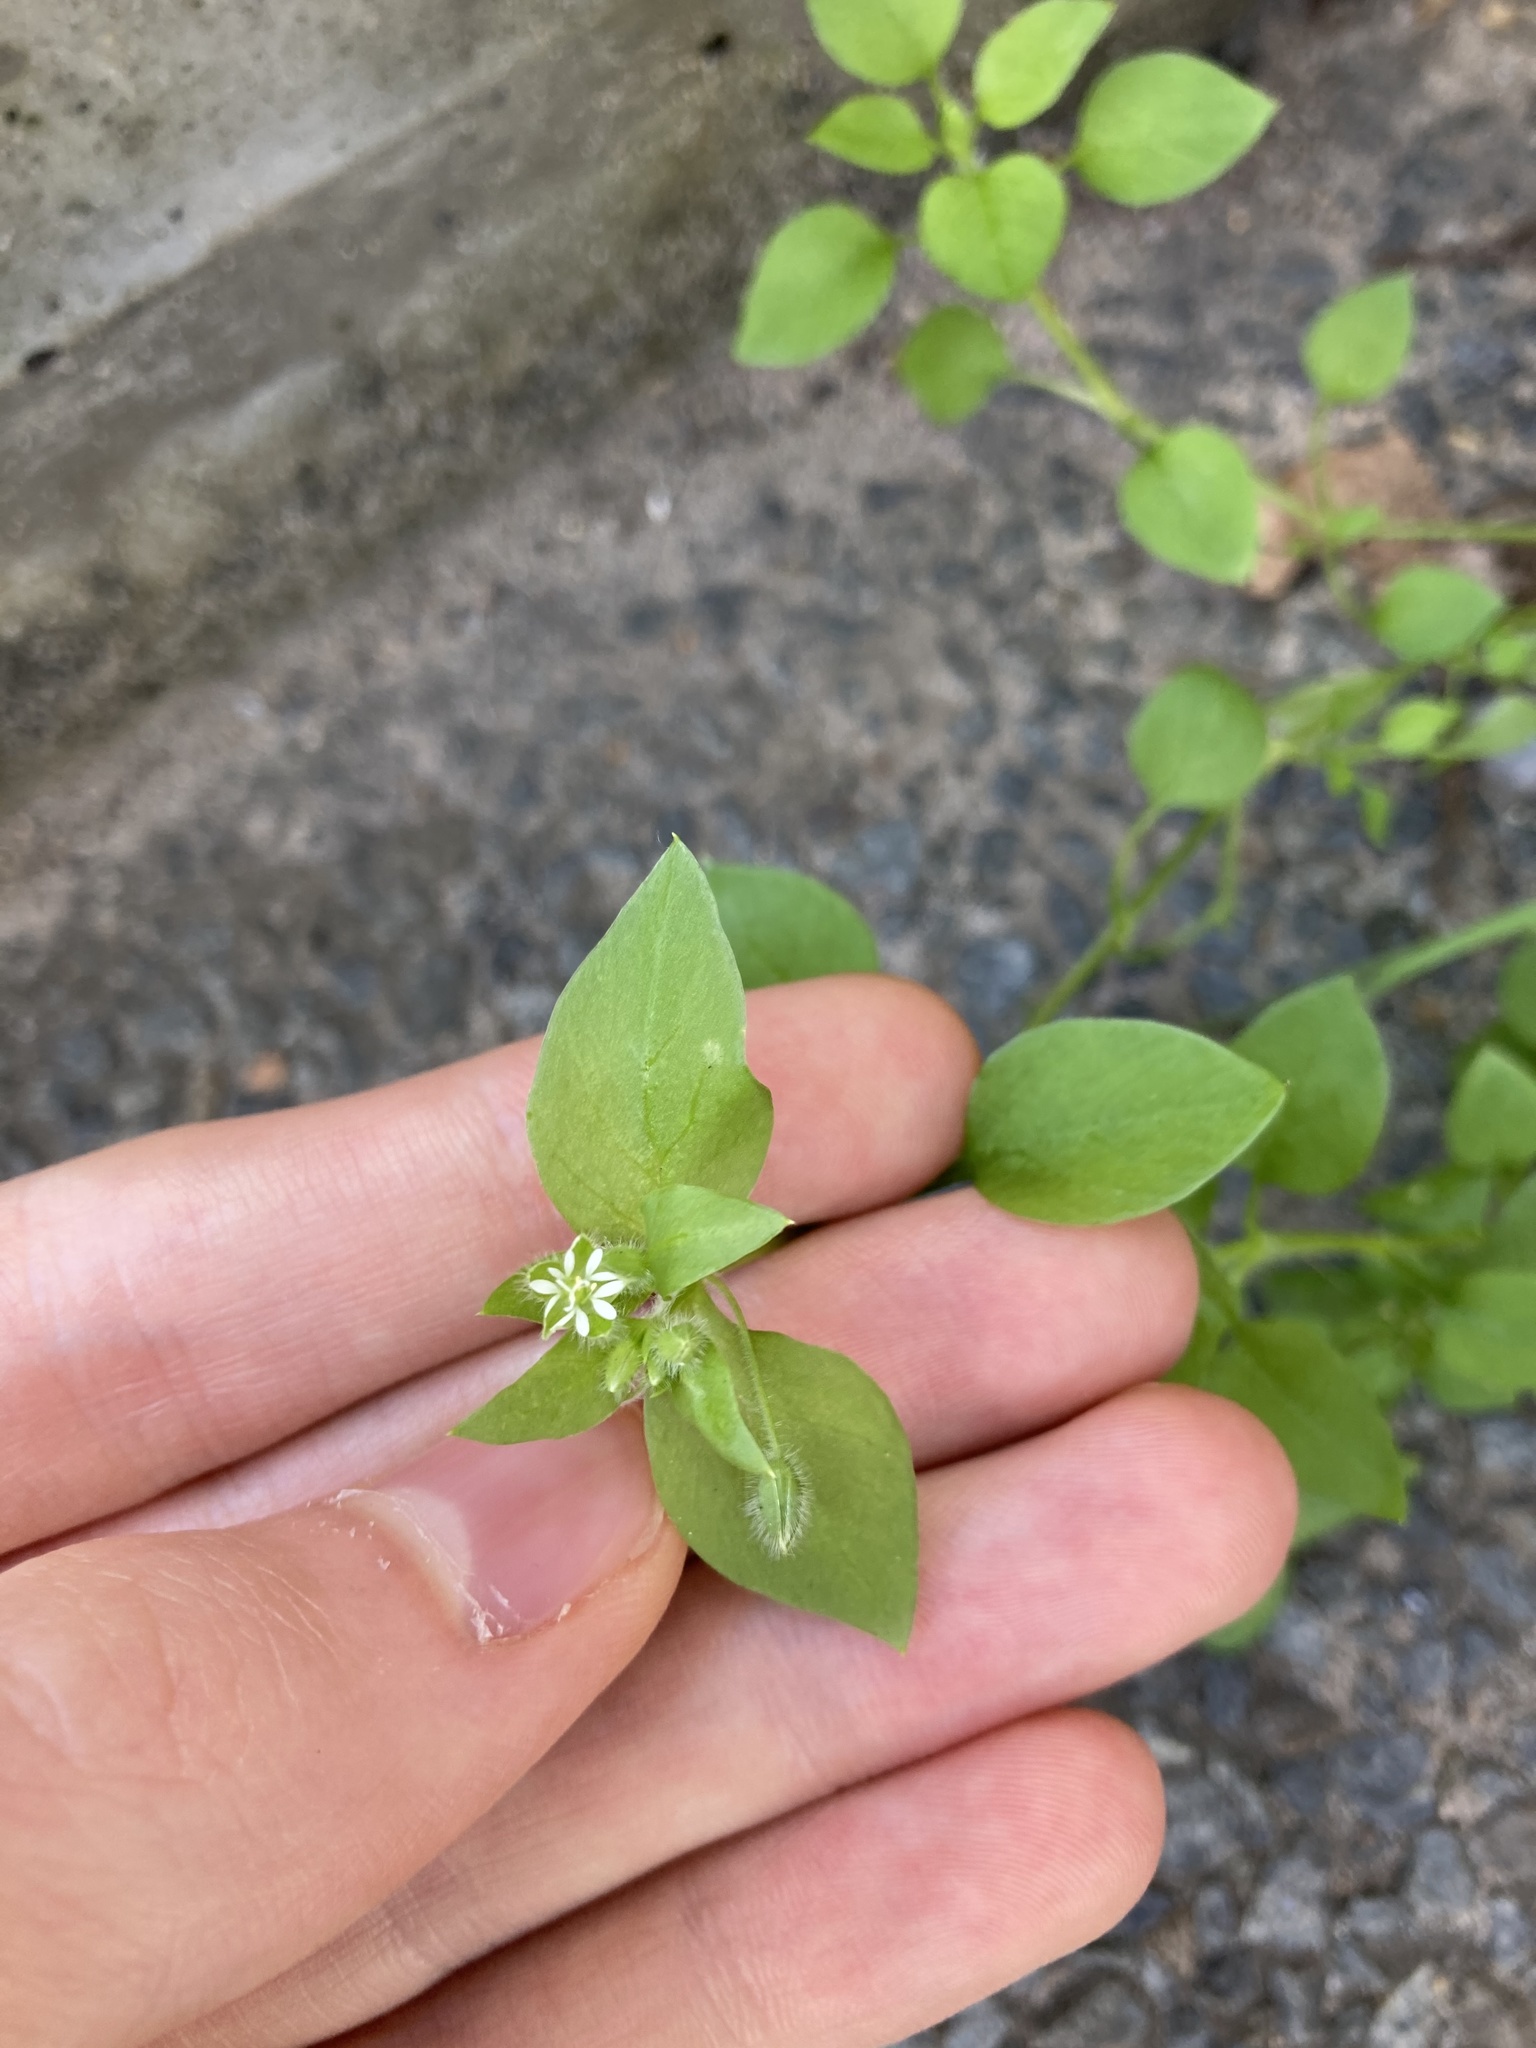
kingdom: Plantae
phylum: Tracheophyta
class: Magnoliopsida
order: Caryophyllales
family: Caryophyllaceae
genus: Stellaria
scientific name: Stellaria media
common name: Common chickweed
